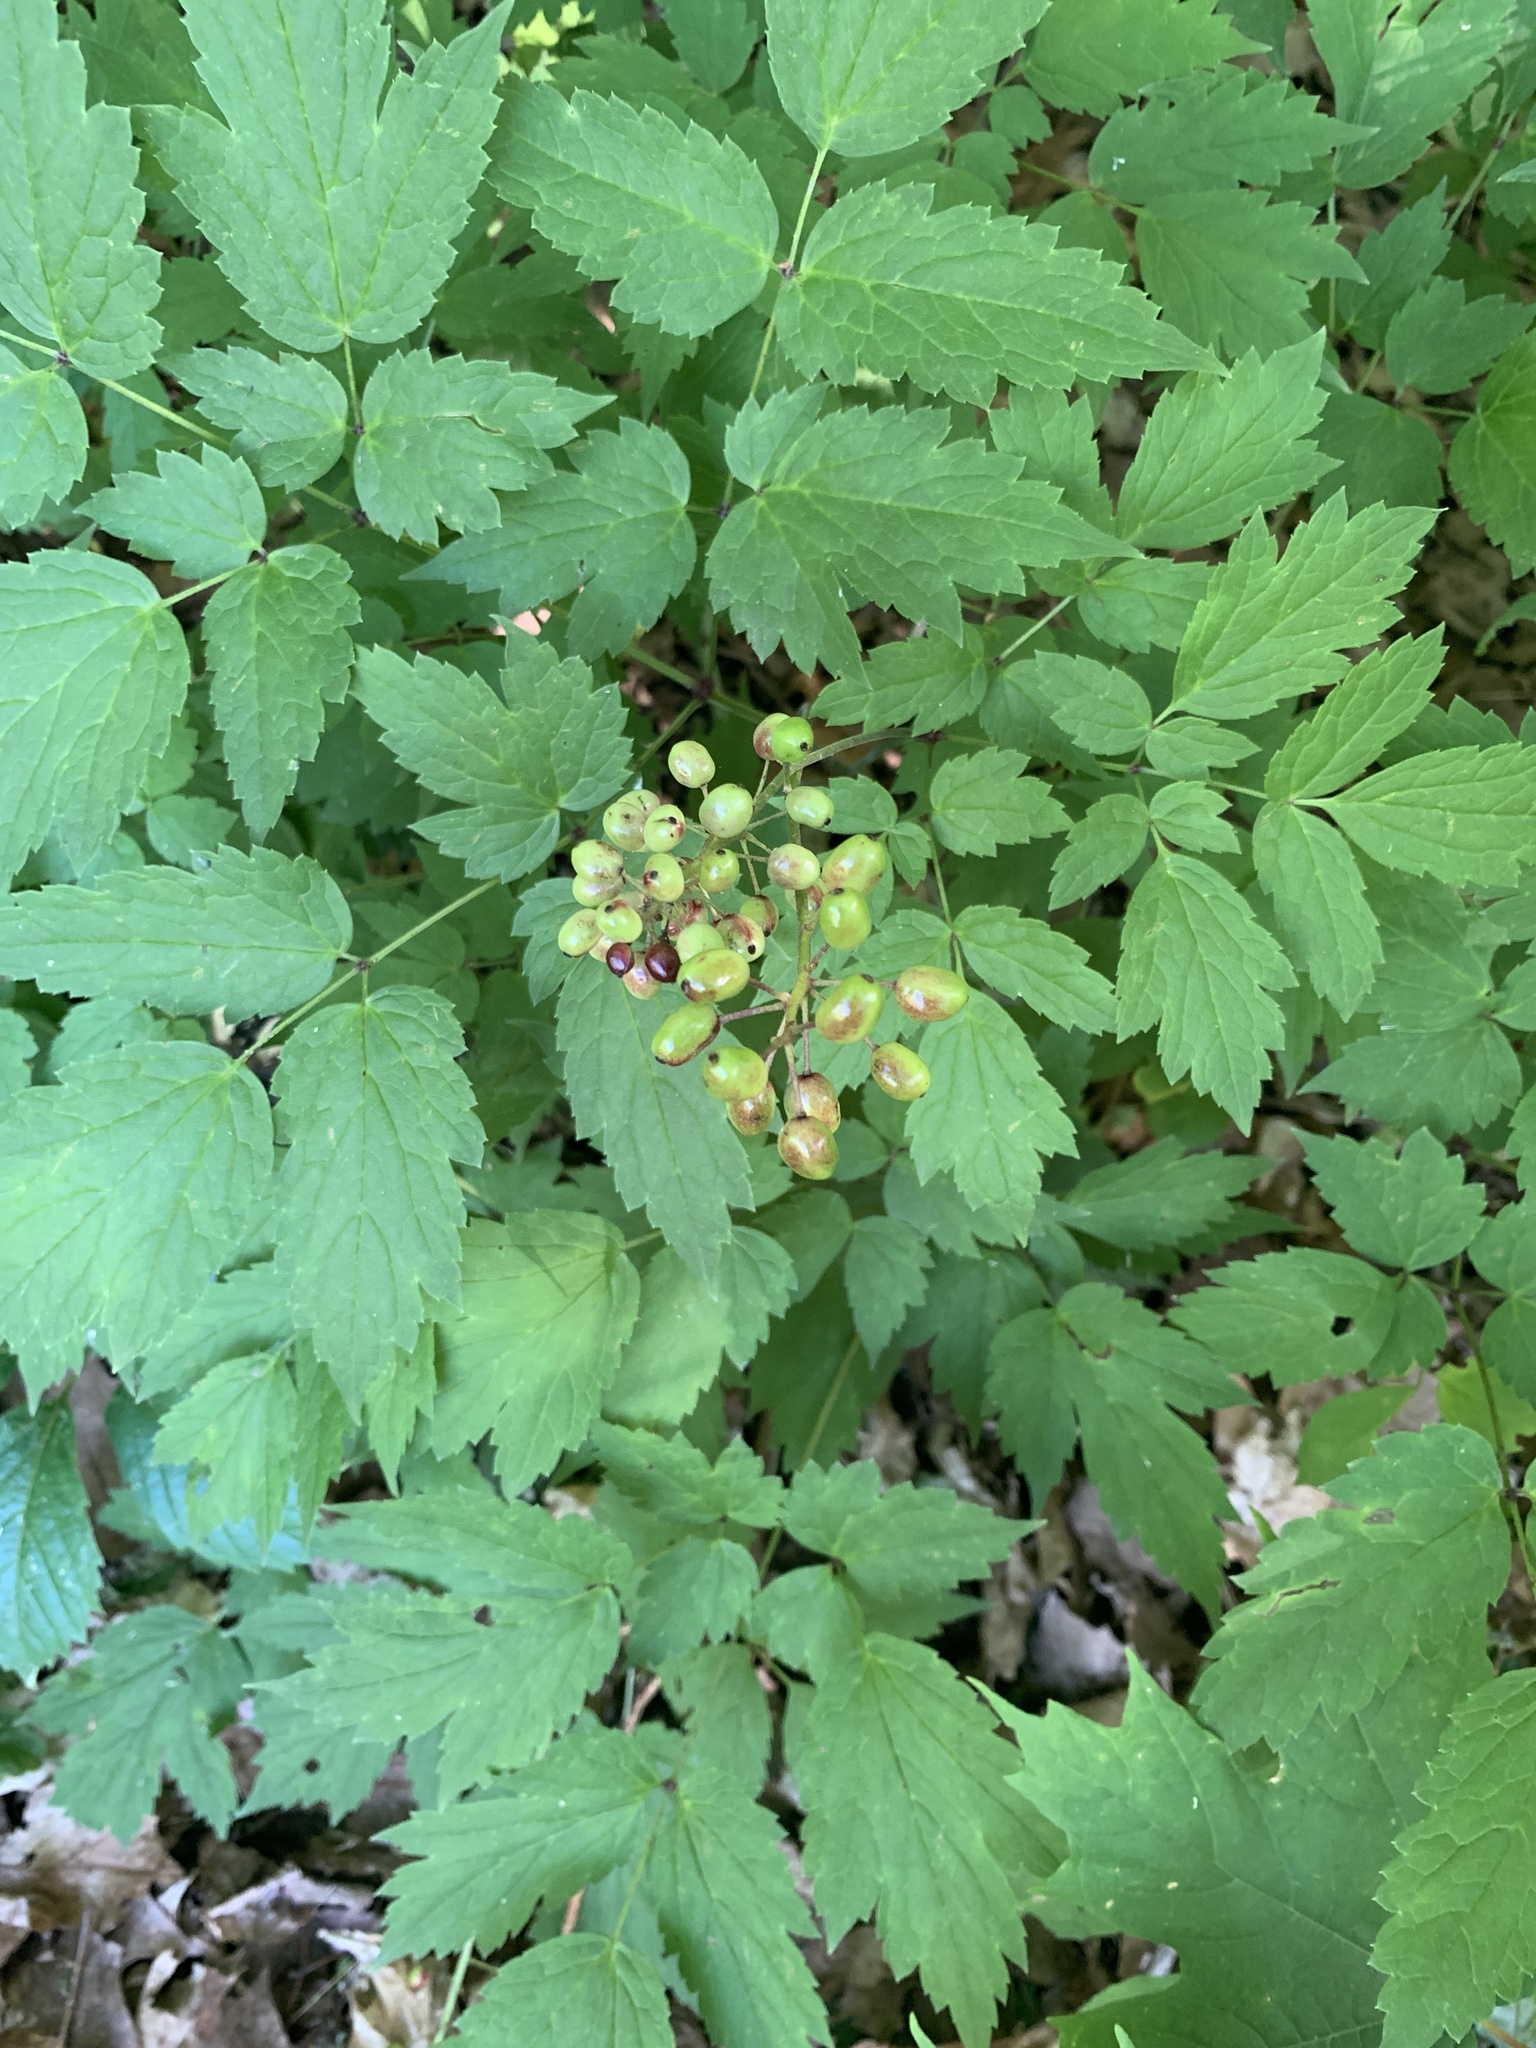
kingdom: Plantae
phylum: Tracheophyta
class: Magnoliopsida
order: Ranunculales
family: Ranunculaceae
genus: Actaea
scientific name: Actaea rubra
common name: Red baneberry
